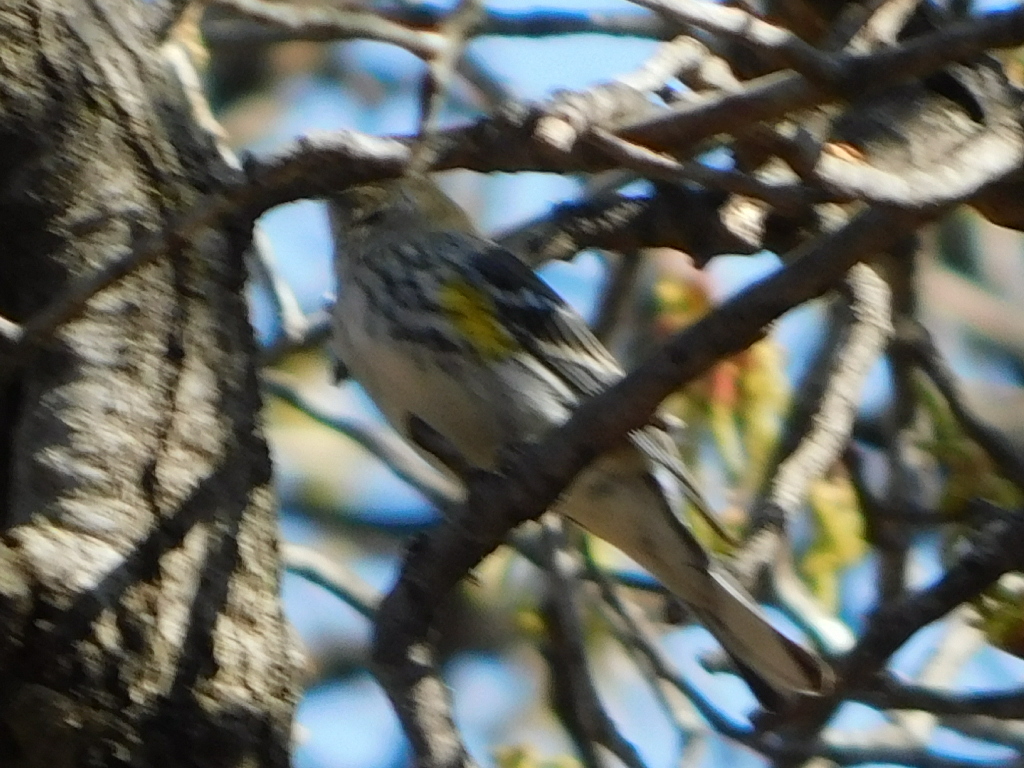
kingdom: Animalia
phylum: Chordata
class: Aves
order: Passeriformes
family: Parulidae
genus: Setophaga
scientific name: Setophaga coronata
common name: Myrtle warbler
